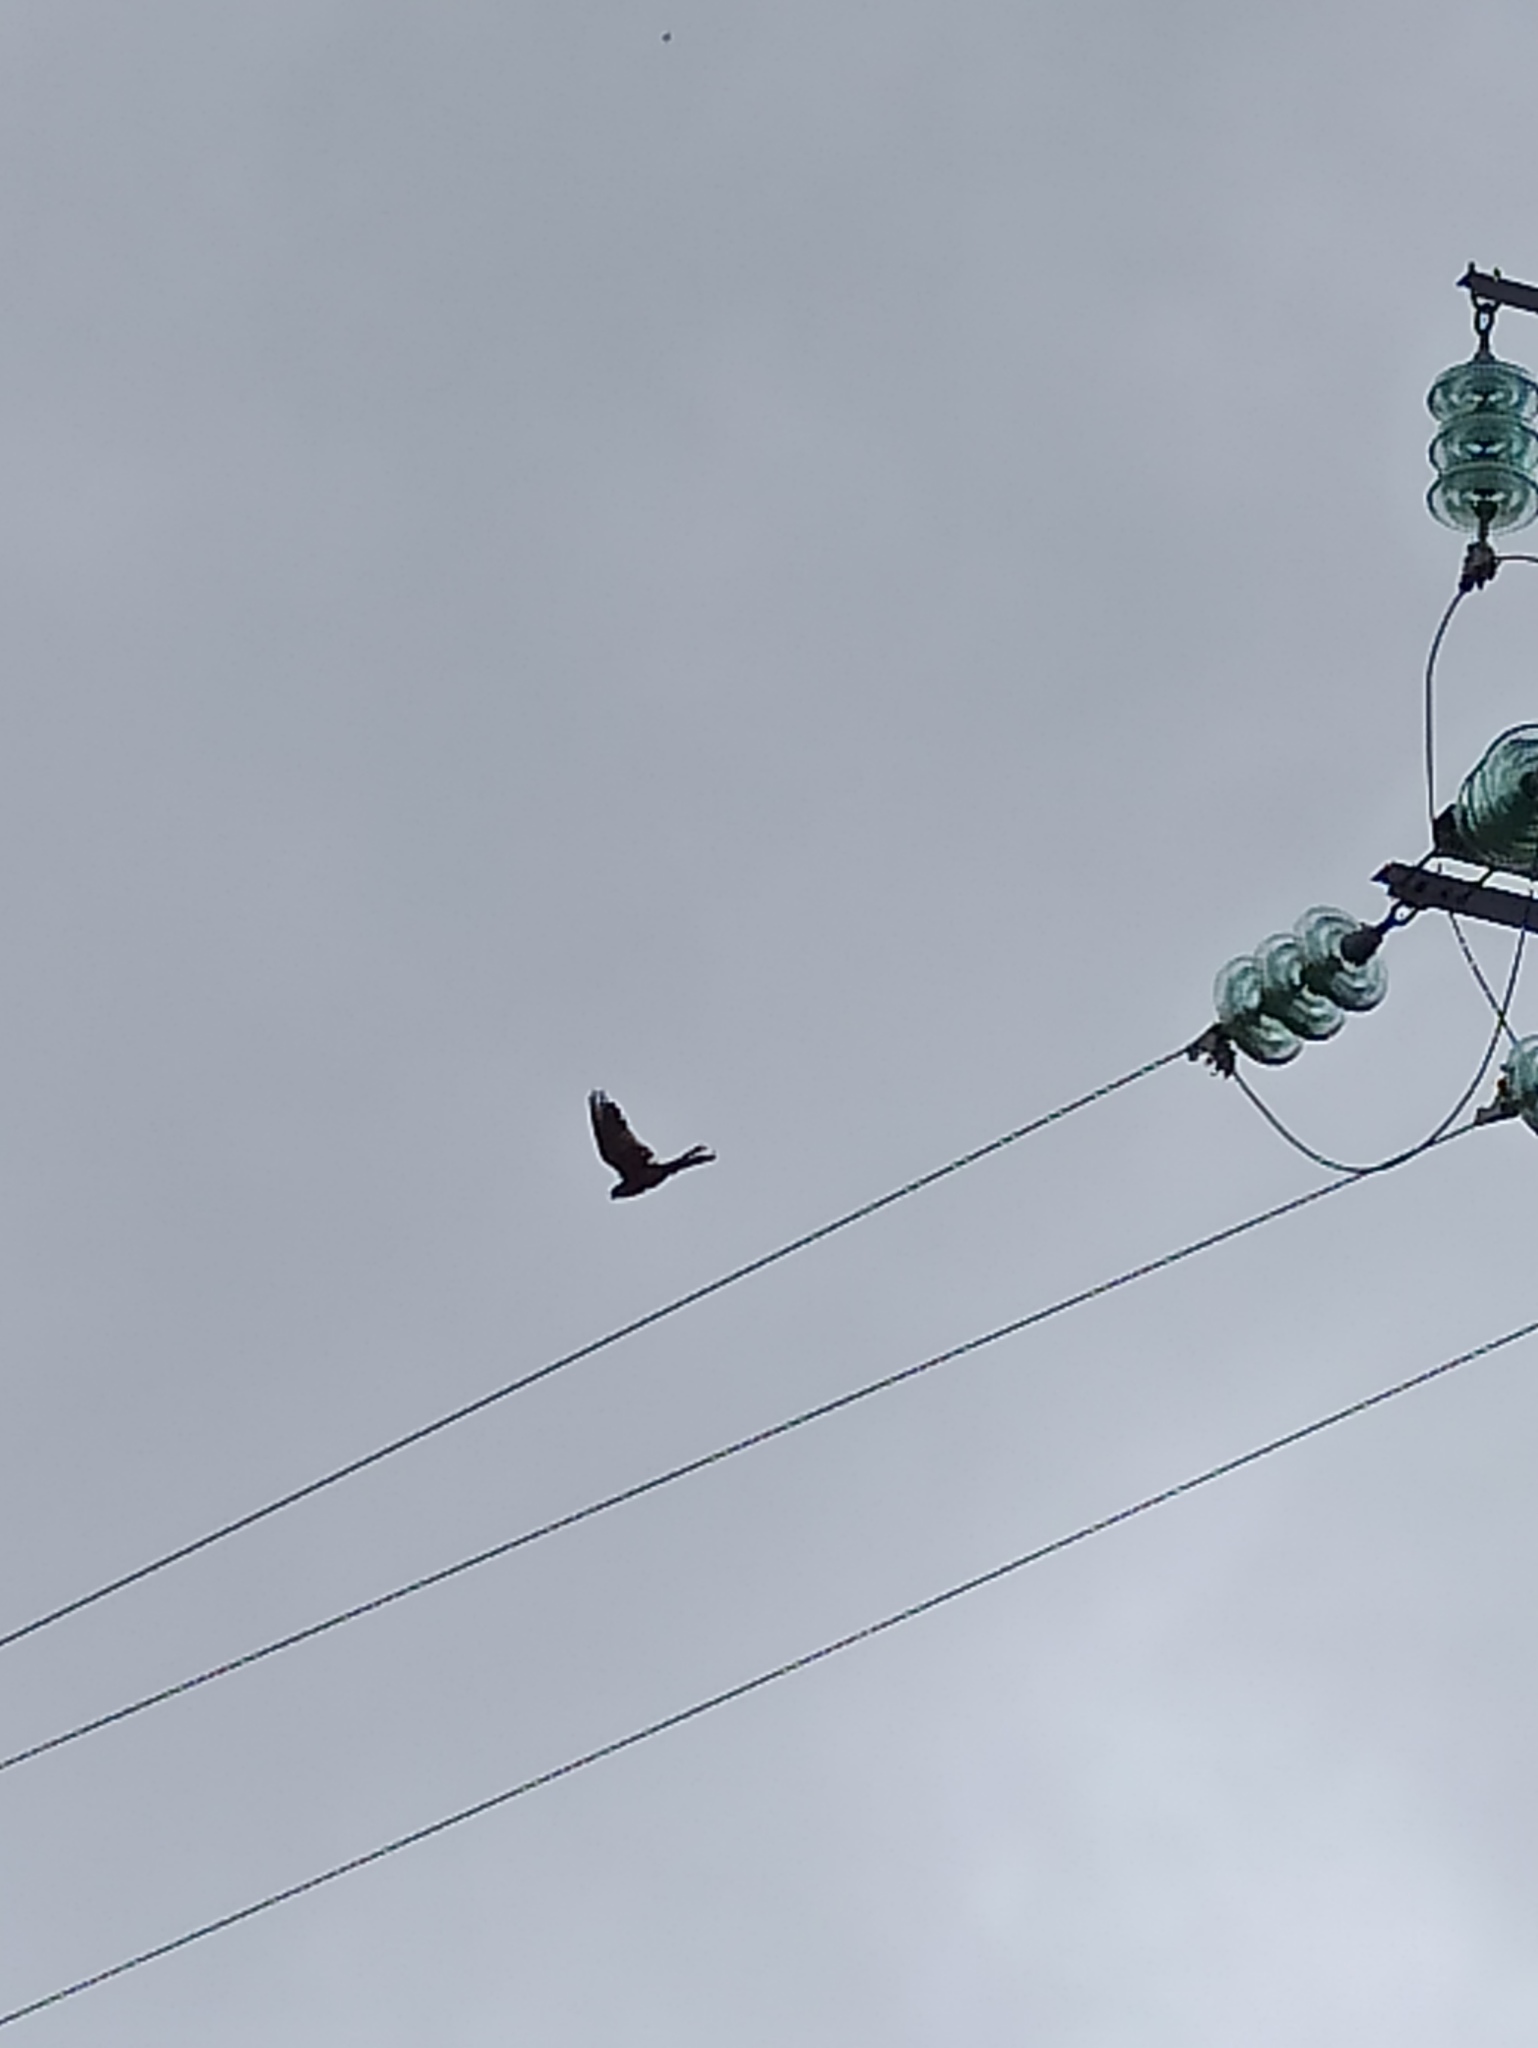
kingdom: Animalia
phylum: Chordata
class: Aves
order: Falconiformes
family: Falconidae
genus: Falco
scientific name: Falco tinnunculus
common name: Common kestrel
